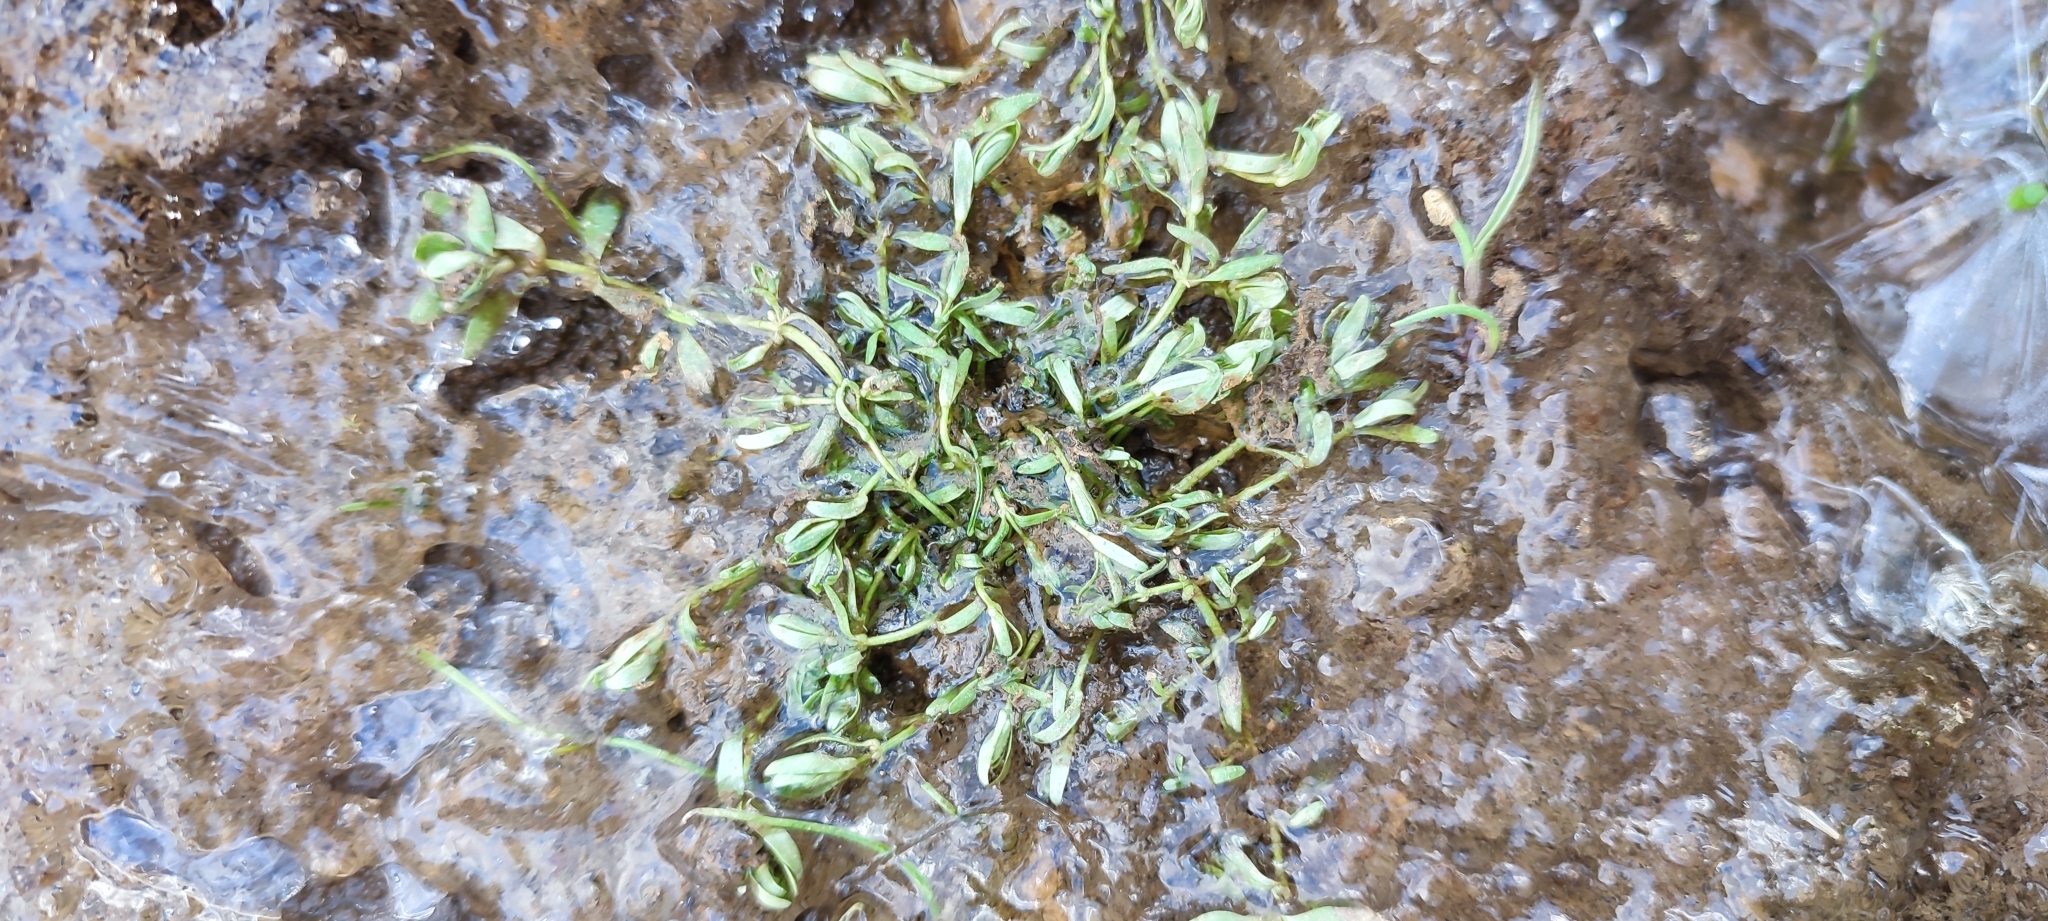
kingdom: Plantae
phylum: Tracheophyta
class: Magnoliopsida
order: Lamiales
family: Plantaginaceae
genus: Callitriche
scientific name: Callitriche palustris
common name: Spring water-starwort
